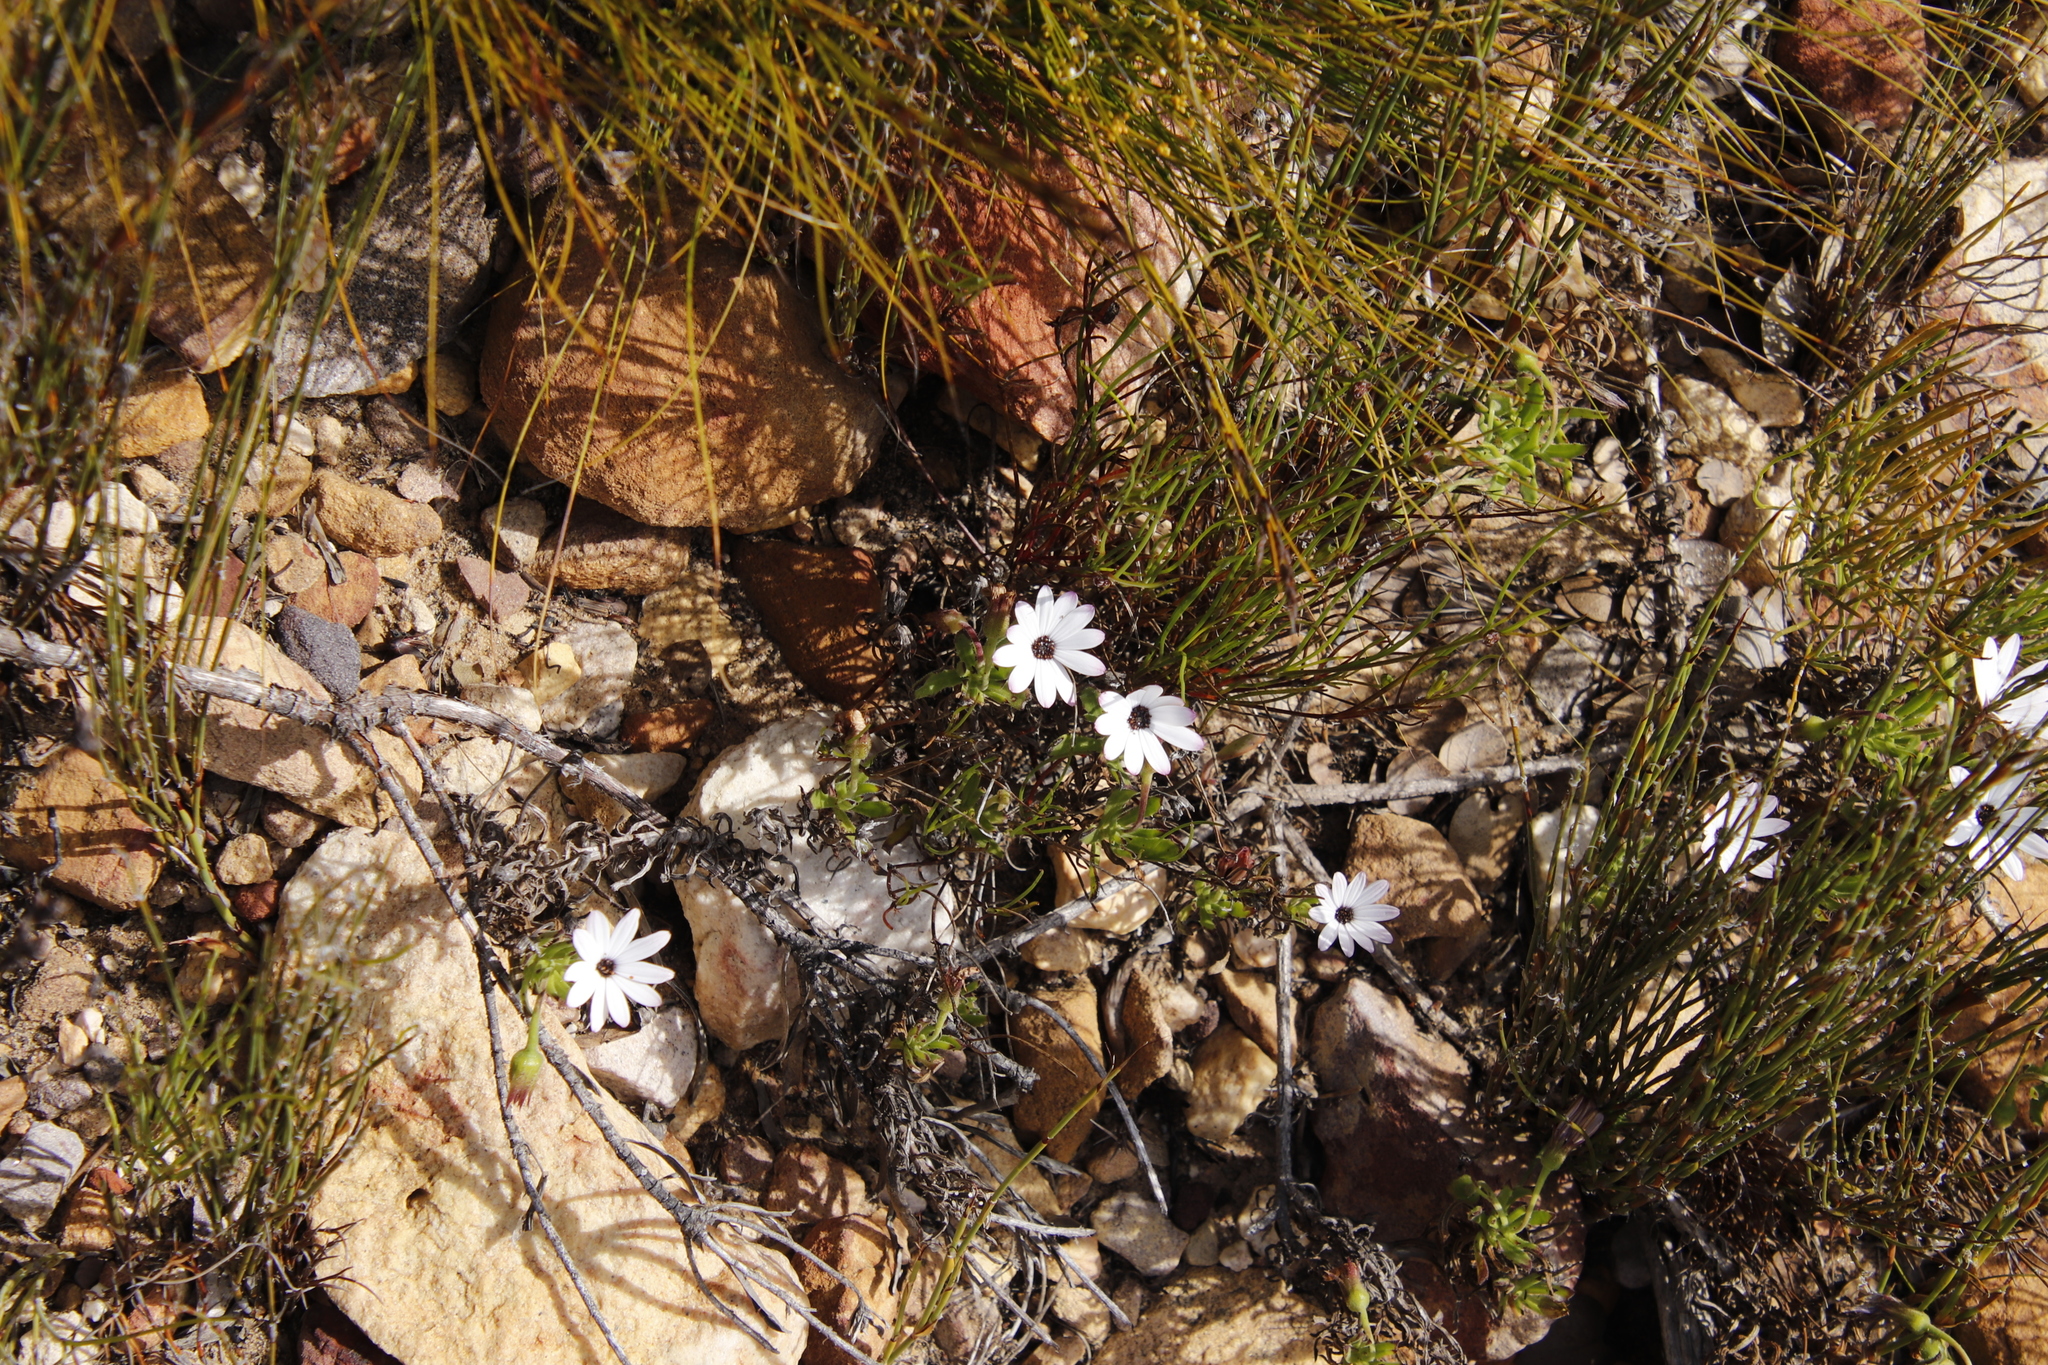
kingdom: Plantae
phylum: Tracheophyta
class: Magnoliopsida
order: Asterales
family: Asteraceae
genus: Dimorphotheca
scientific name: Dimorphotheca walliana
